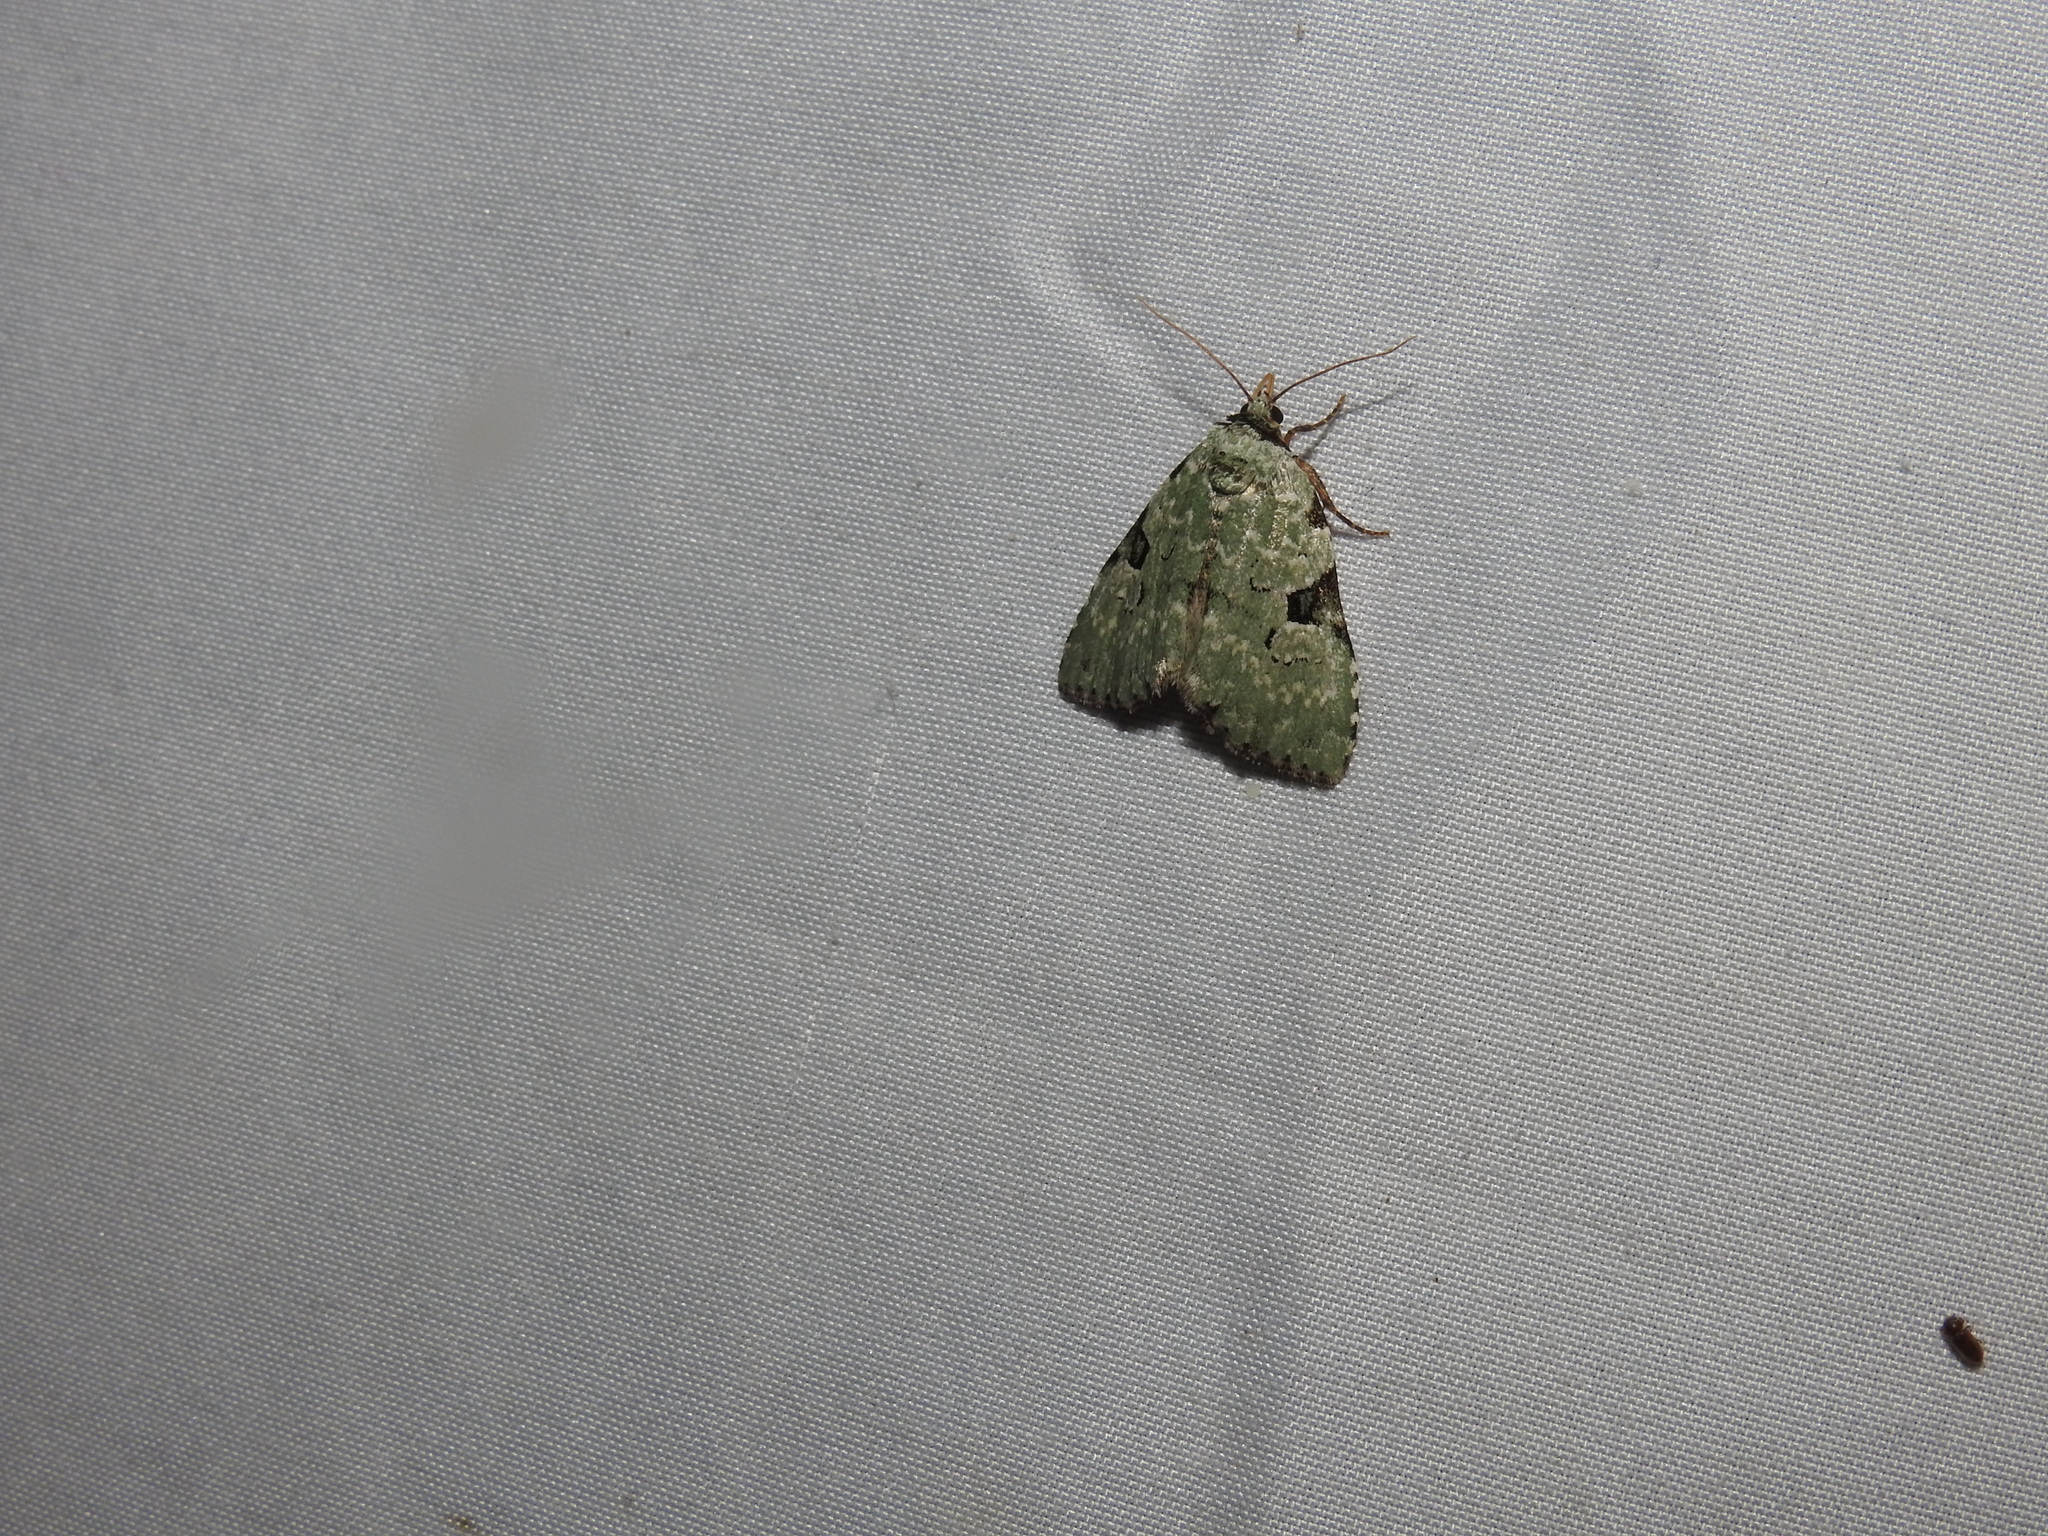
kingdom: Animalia
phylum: Arthropoda
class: Insecta
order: Lepidoptera
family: Noctuidae
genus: Leuconycta
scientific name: Leuconycta diphteroides
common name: Green leuconycta moth
